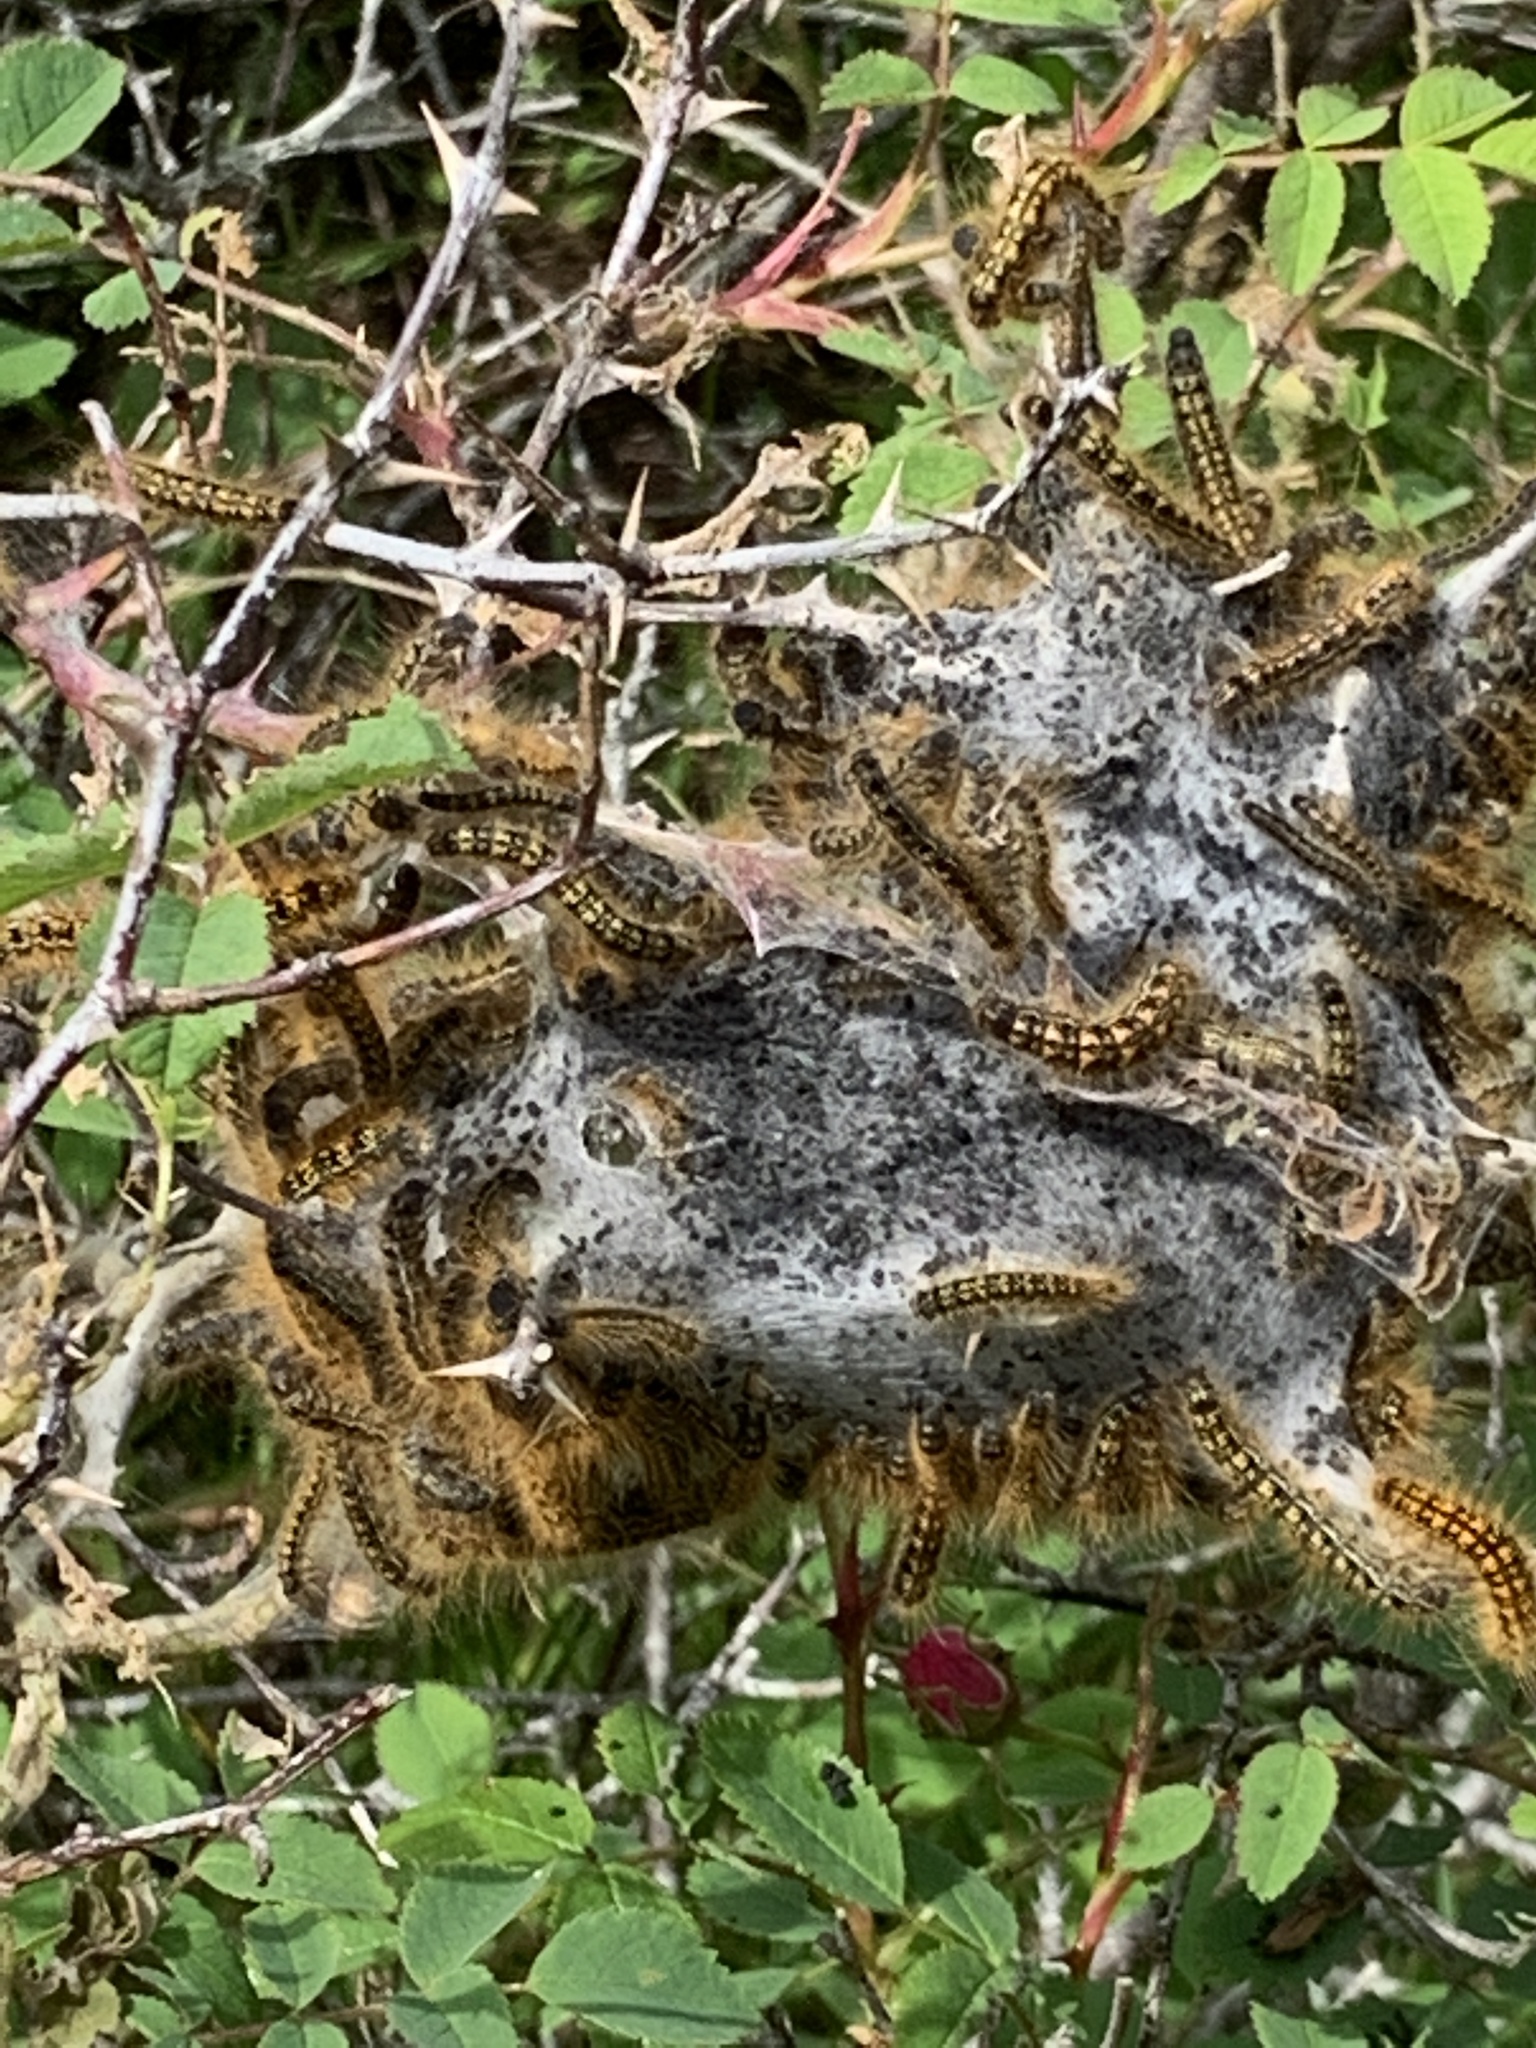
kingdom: Animalia
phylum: Arthropoda
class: Insecta
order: Lepidoptera
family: Lasiocampidae
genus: Malacosoma
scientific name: Malacosoma californica
